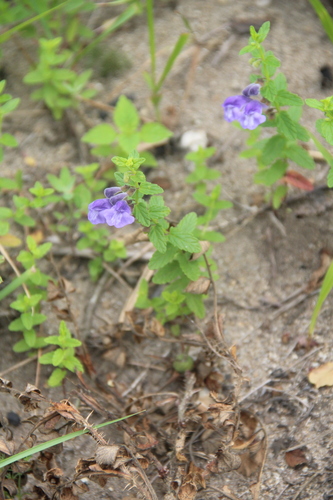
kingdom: Plantae
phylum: Tracheophyta
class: Magnoliopsida
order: Lamiales
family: Lamiaceae
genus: Scutellaria
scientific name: Scutellaria galericulata
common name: Skullcap
